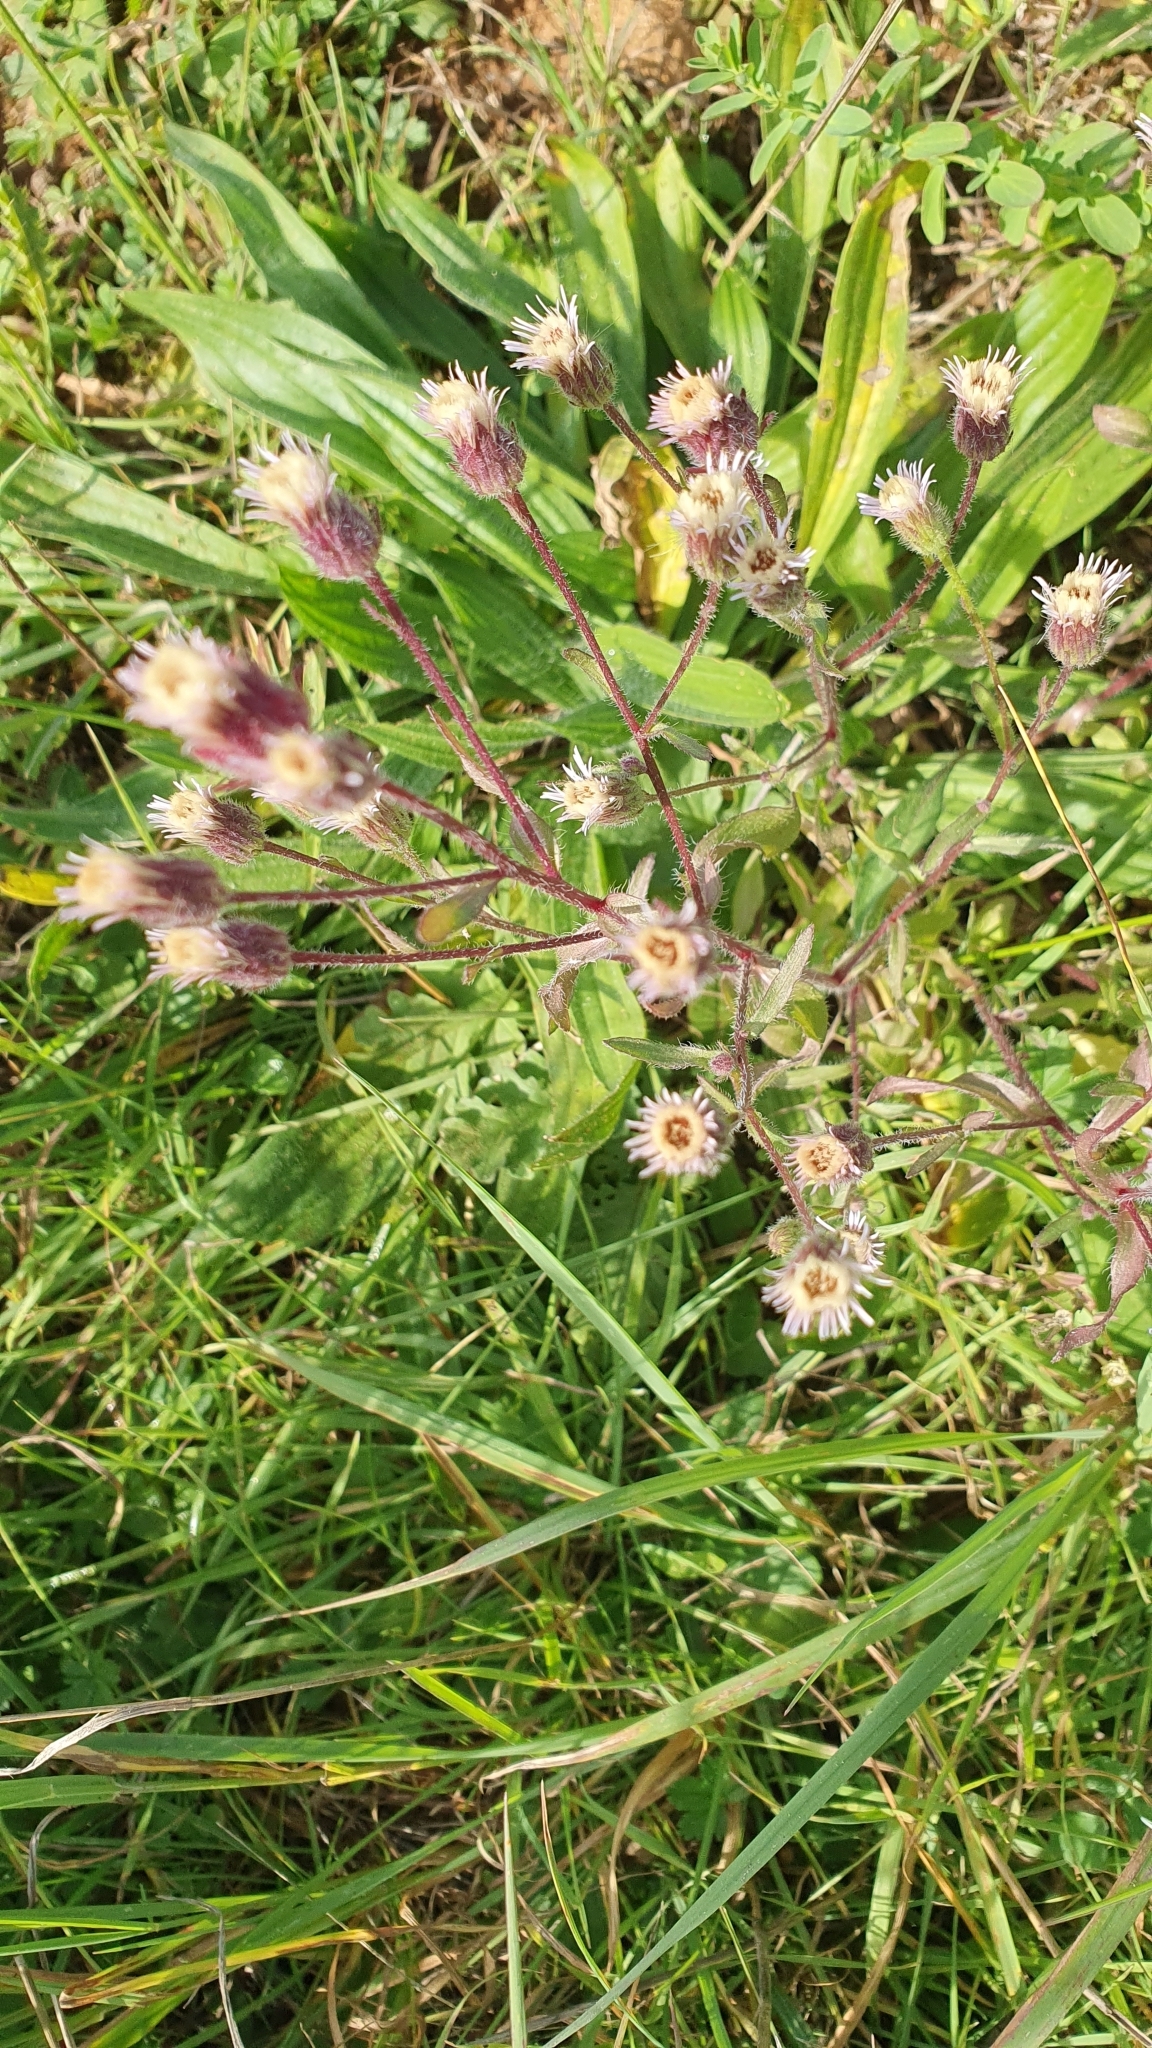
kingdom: Plantae
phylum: Tracheophyta
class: Magnoliopsida
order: Asterales
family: Asteraceae
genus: Erigeron
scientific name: Erigeron acris
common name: Blue fleabane
